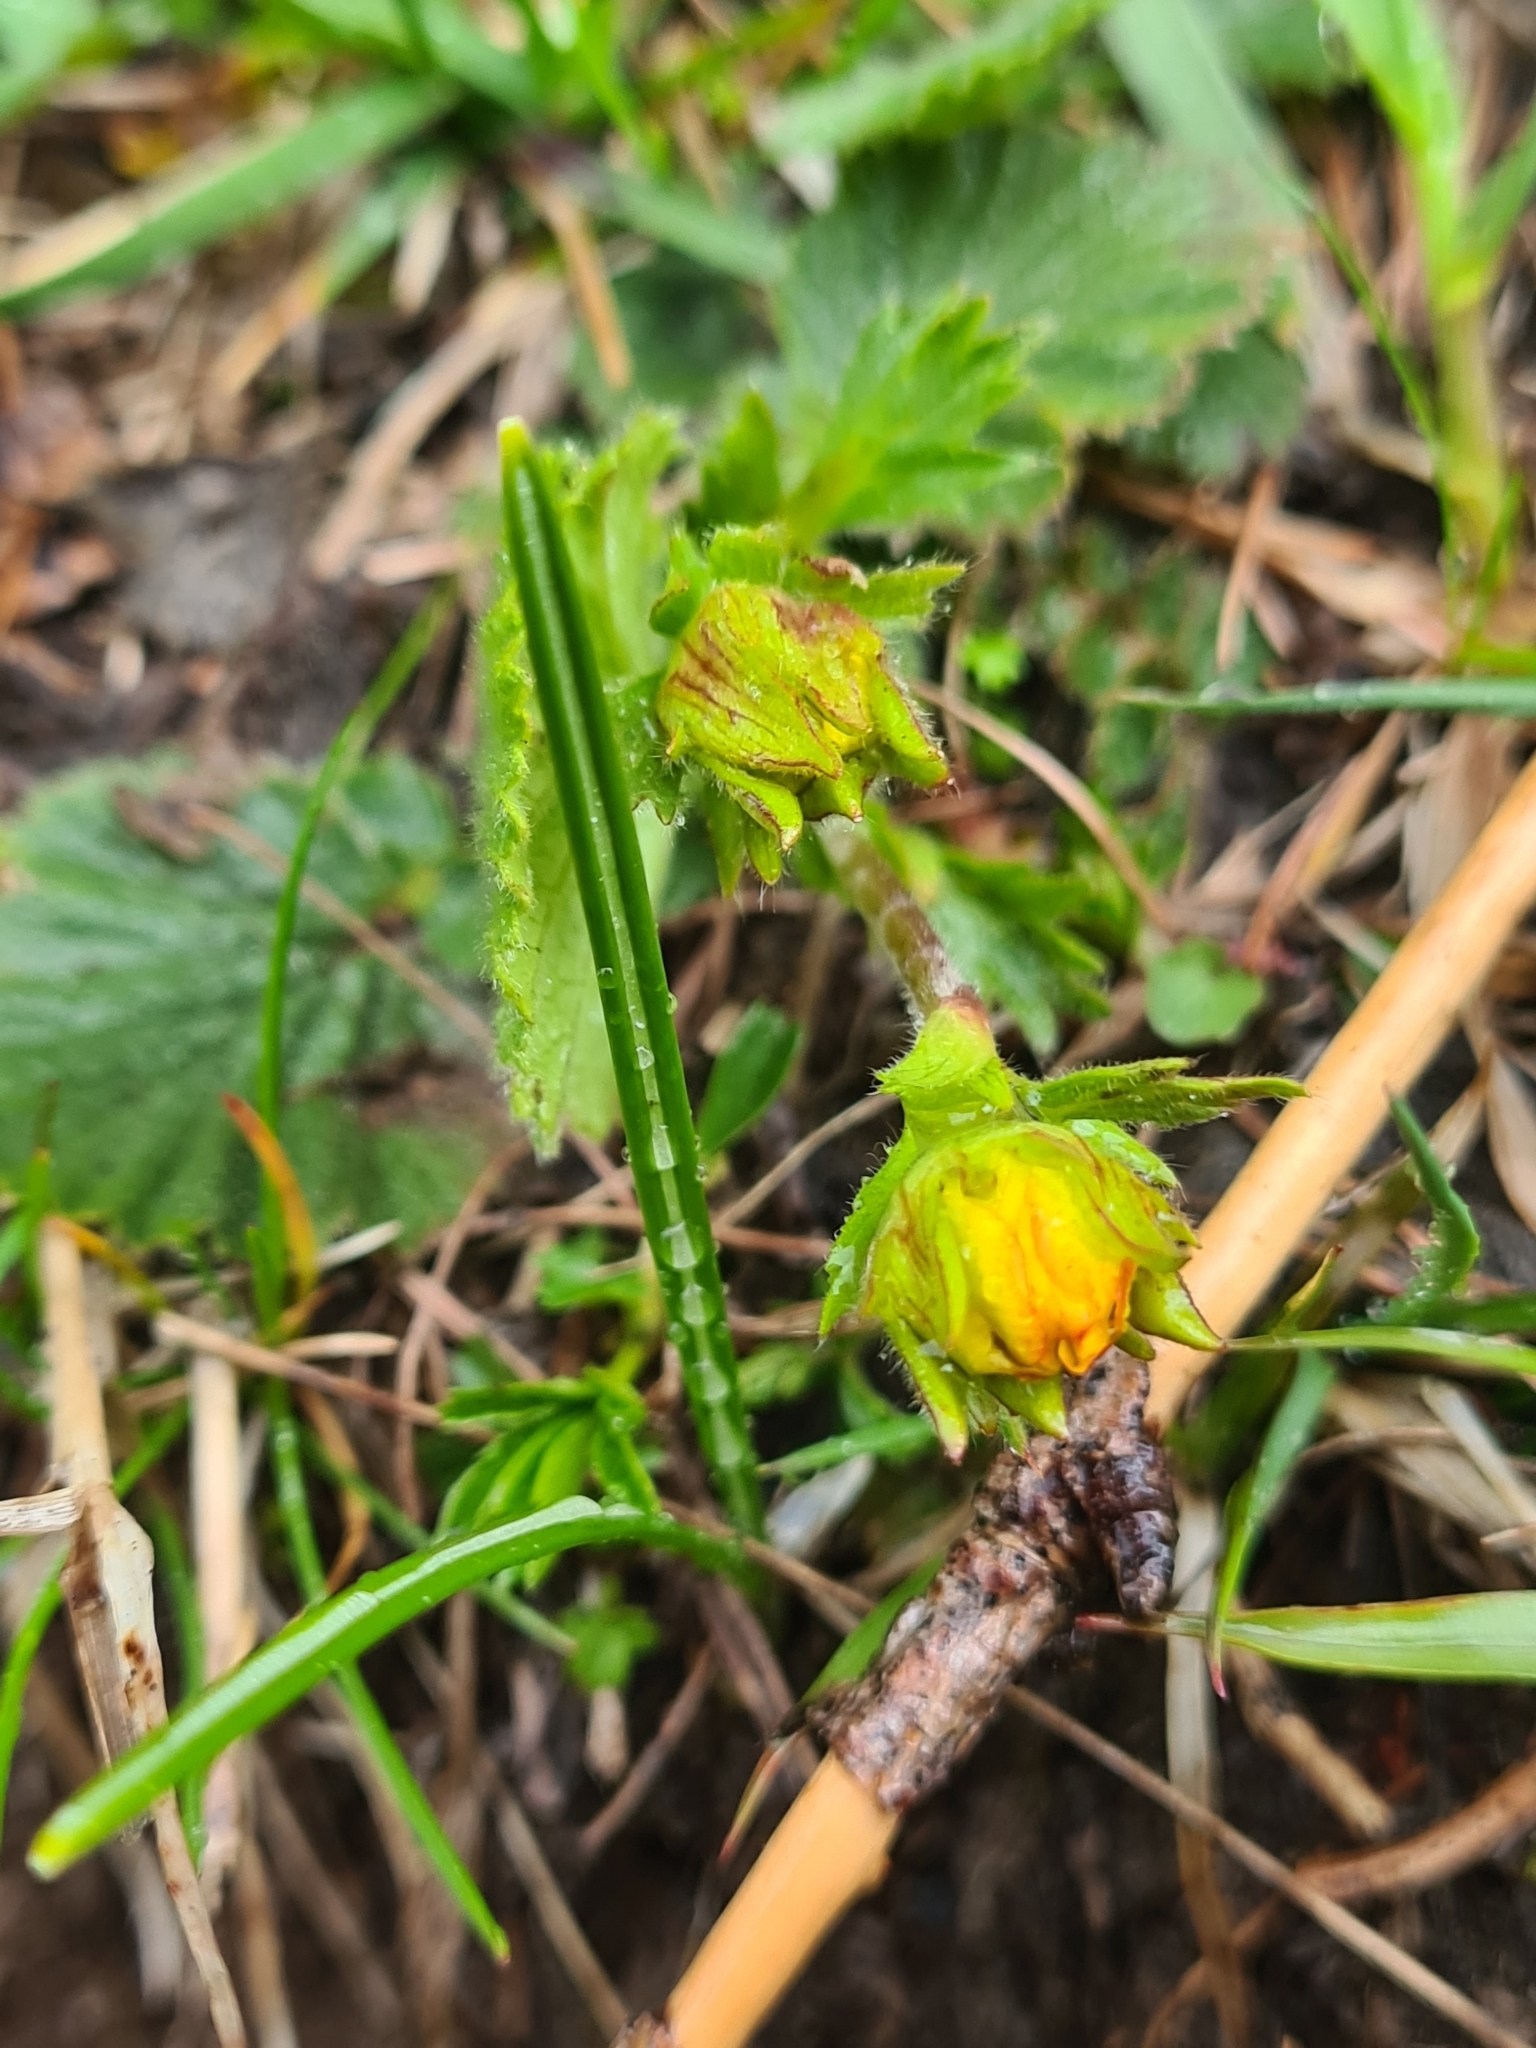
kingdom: Plantae
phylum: Tracheophyta
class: Magnoliopsida
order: Rosales
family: Rosaceae
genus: Geum
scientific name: Geum montanum
